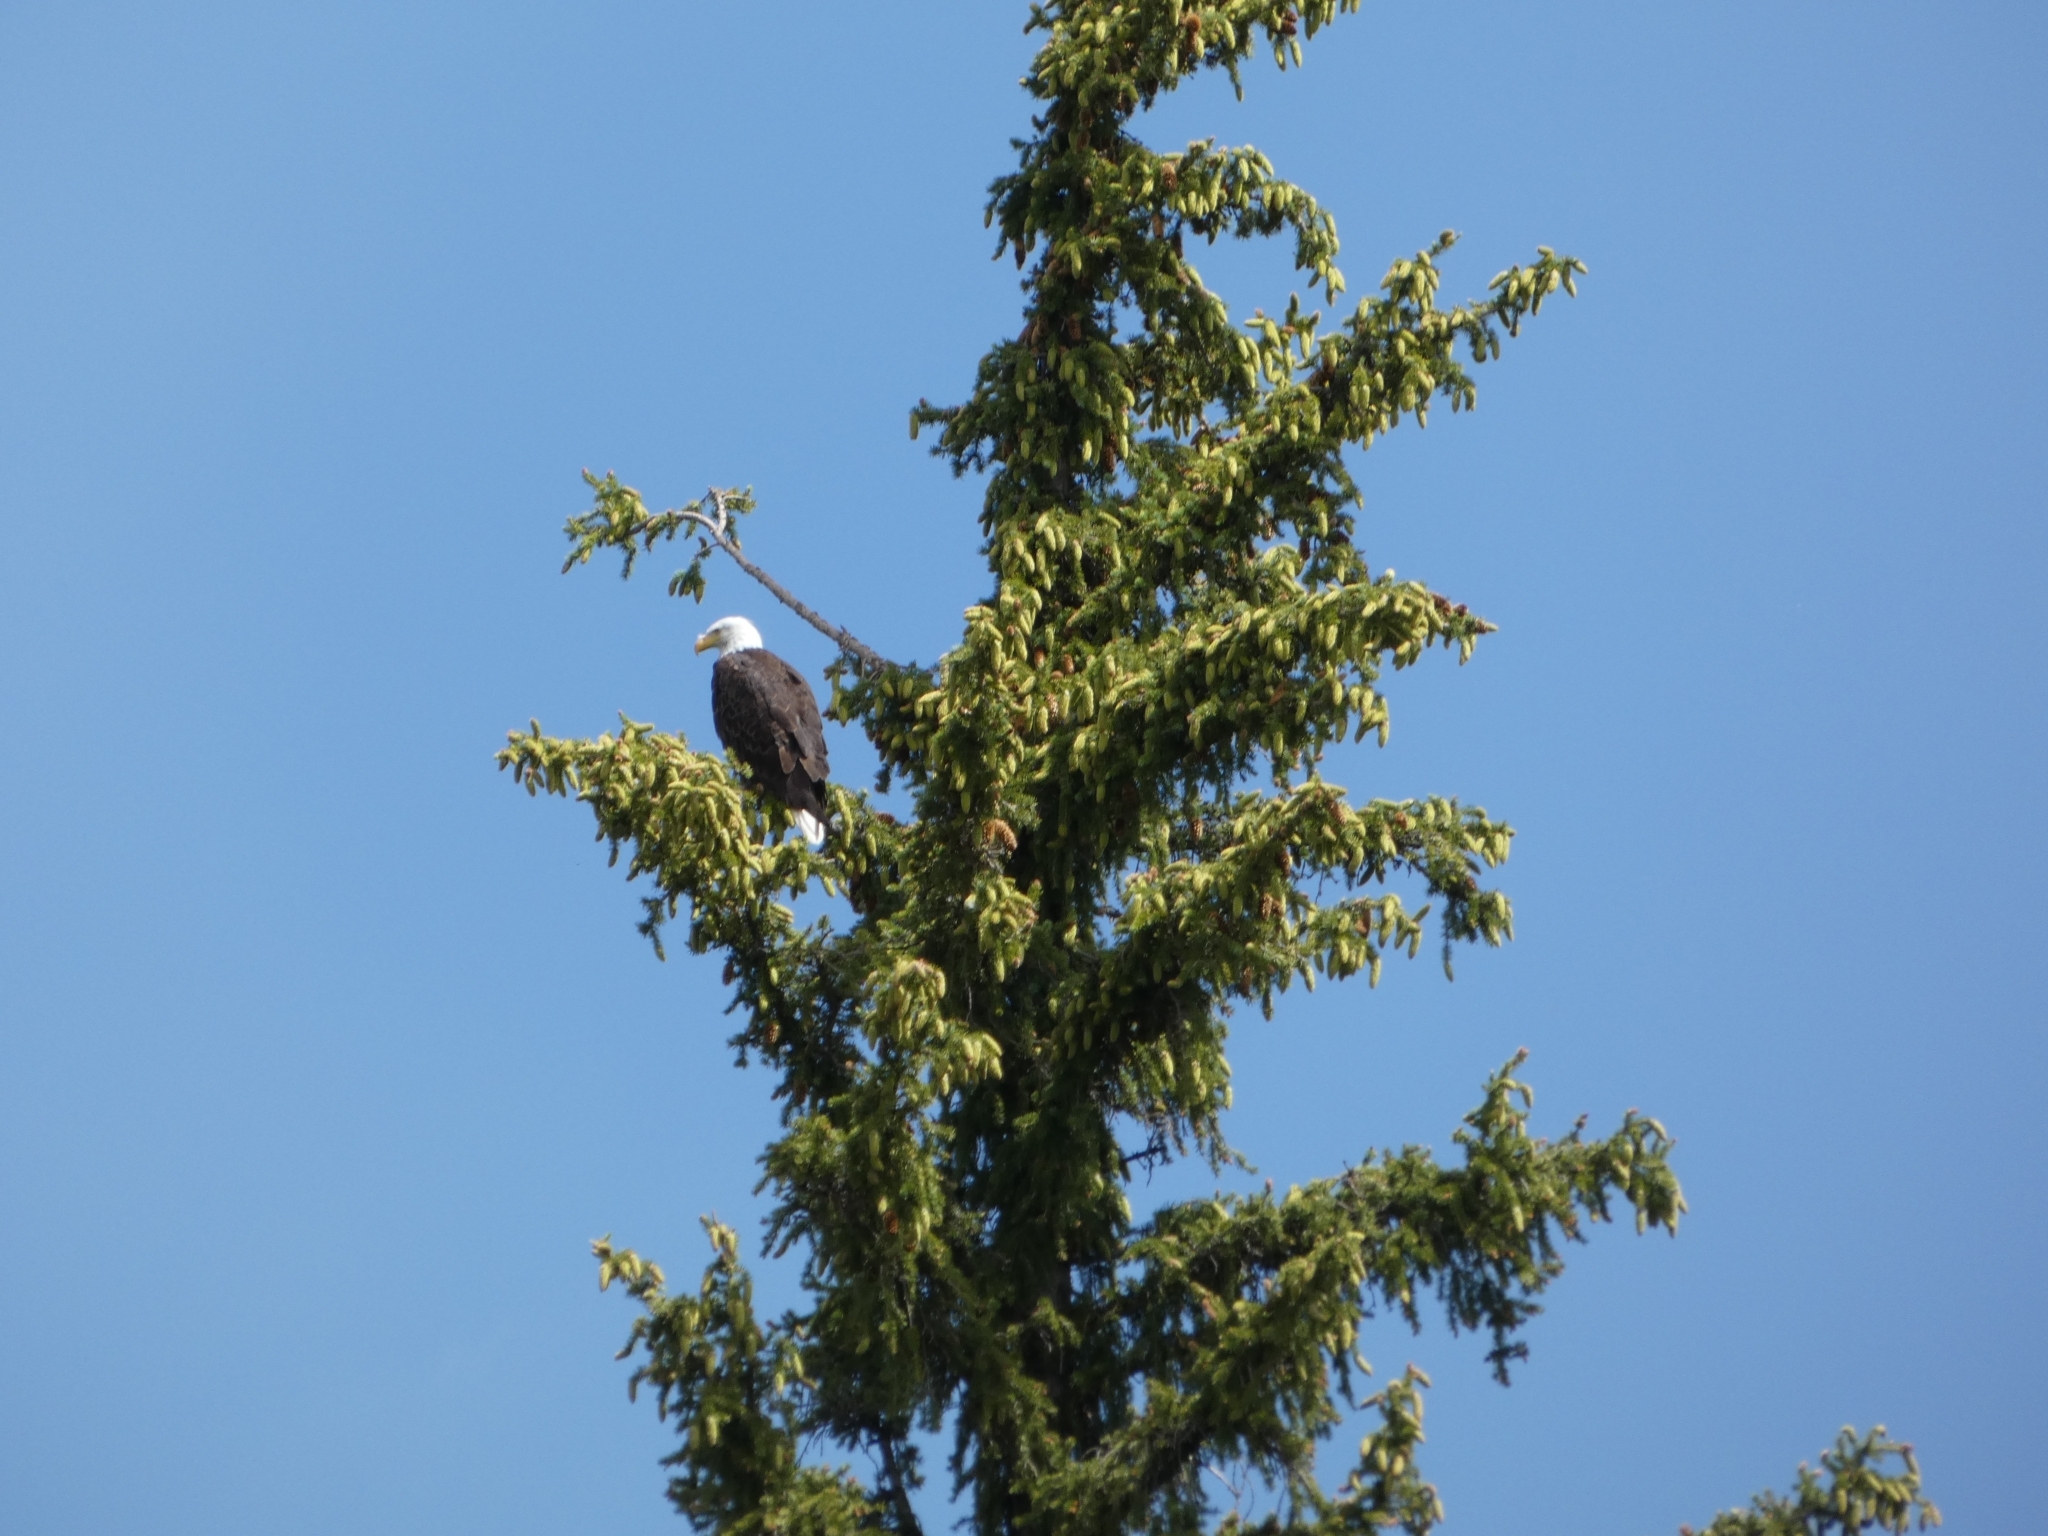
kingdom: Animalia
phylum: Chordata
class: Aves
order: Accipitriformes
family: Accipitridae
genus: Haliaeetus
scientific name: Haliaeetus leucocephalus
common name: Bald eagle
